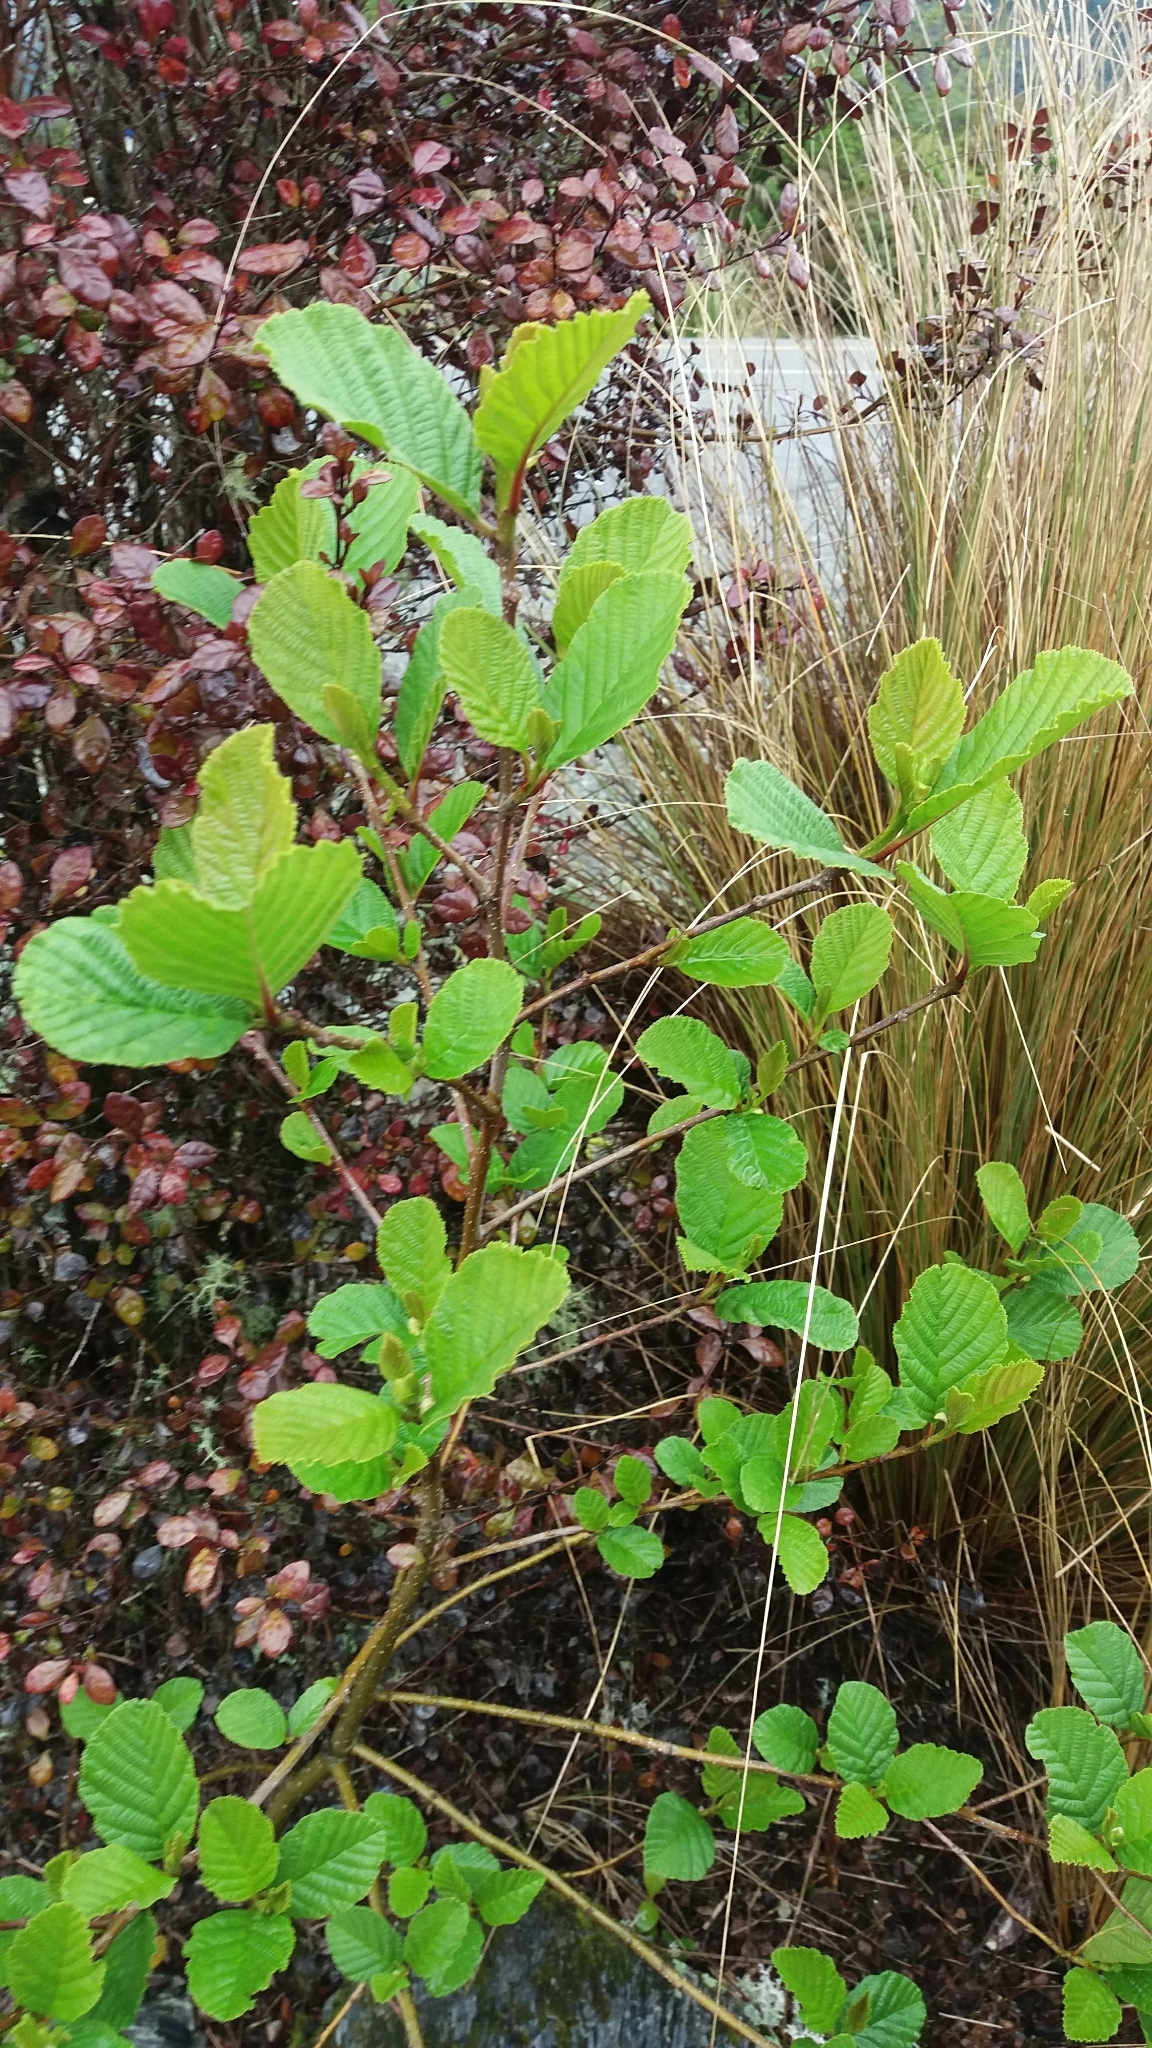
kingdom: Plantae
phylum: Tracheophyta
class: Magnoliopsida
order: Fagales
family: Betulaceae
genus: Alnus
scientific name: Alnus glutinosa
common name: Black alder
